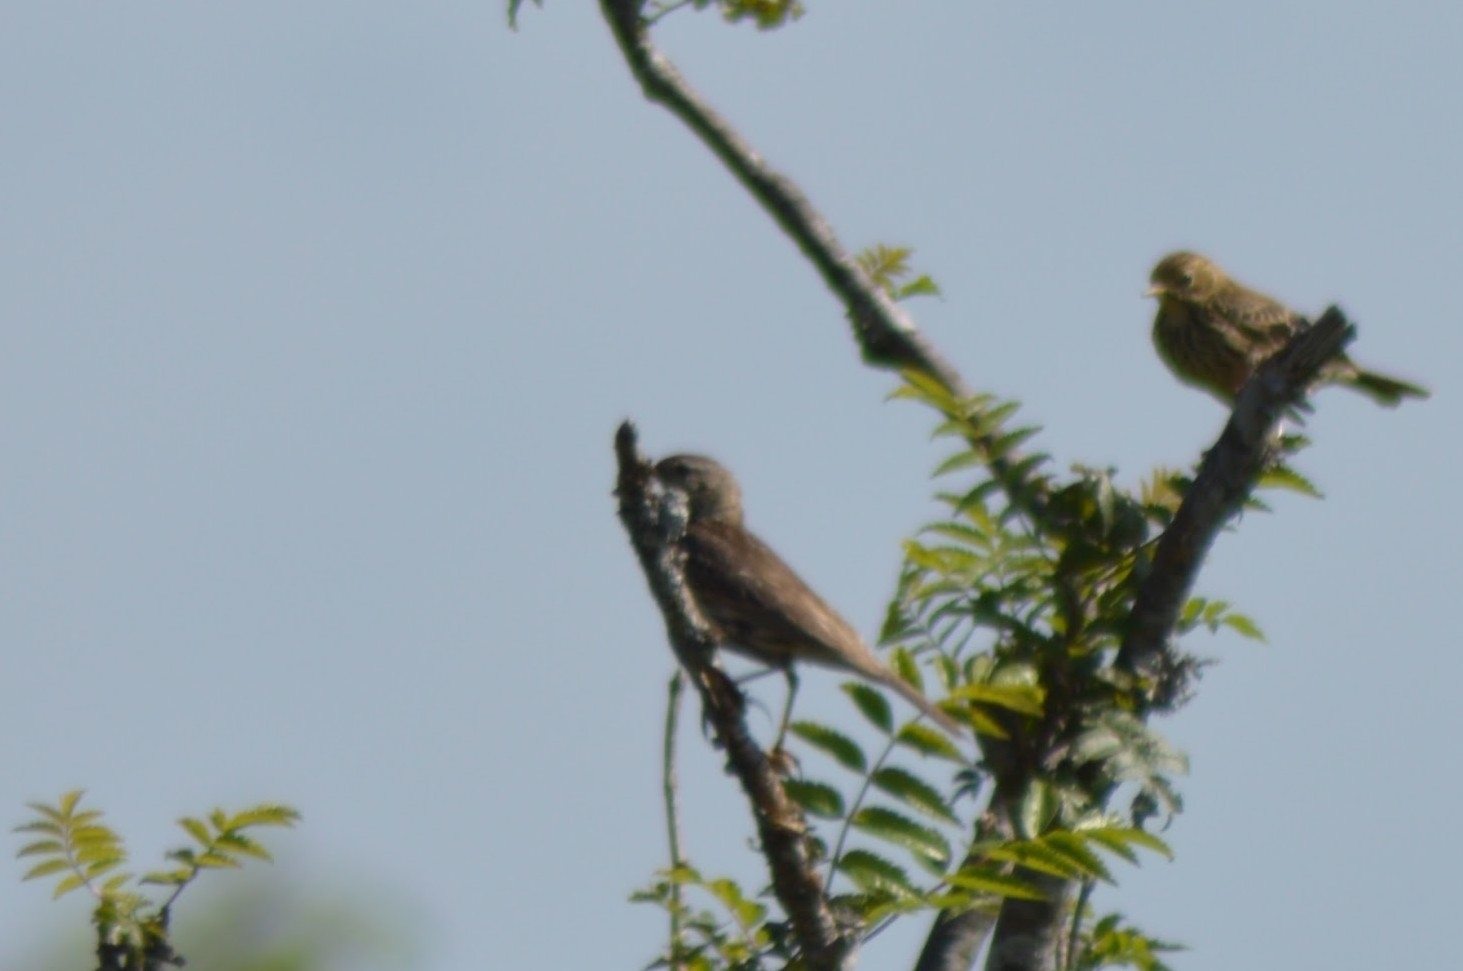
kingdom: Animalia
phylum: Chordata
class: Aves
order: Passeriformes
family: Motacillidae
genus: Anthus
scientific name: Anthus spinoletta
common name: Water pipit
